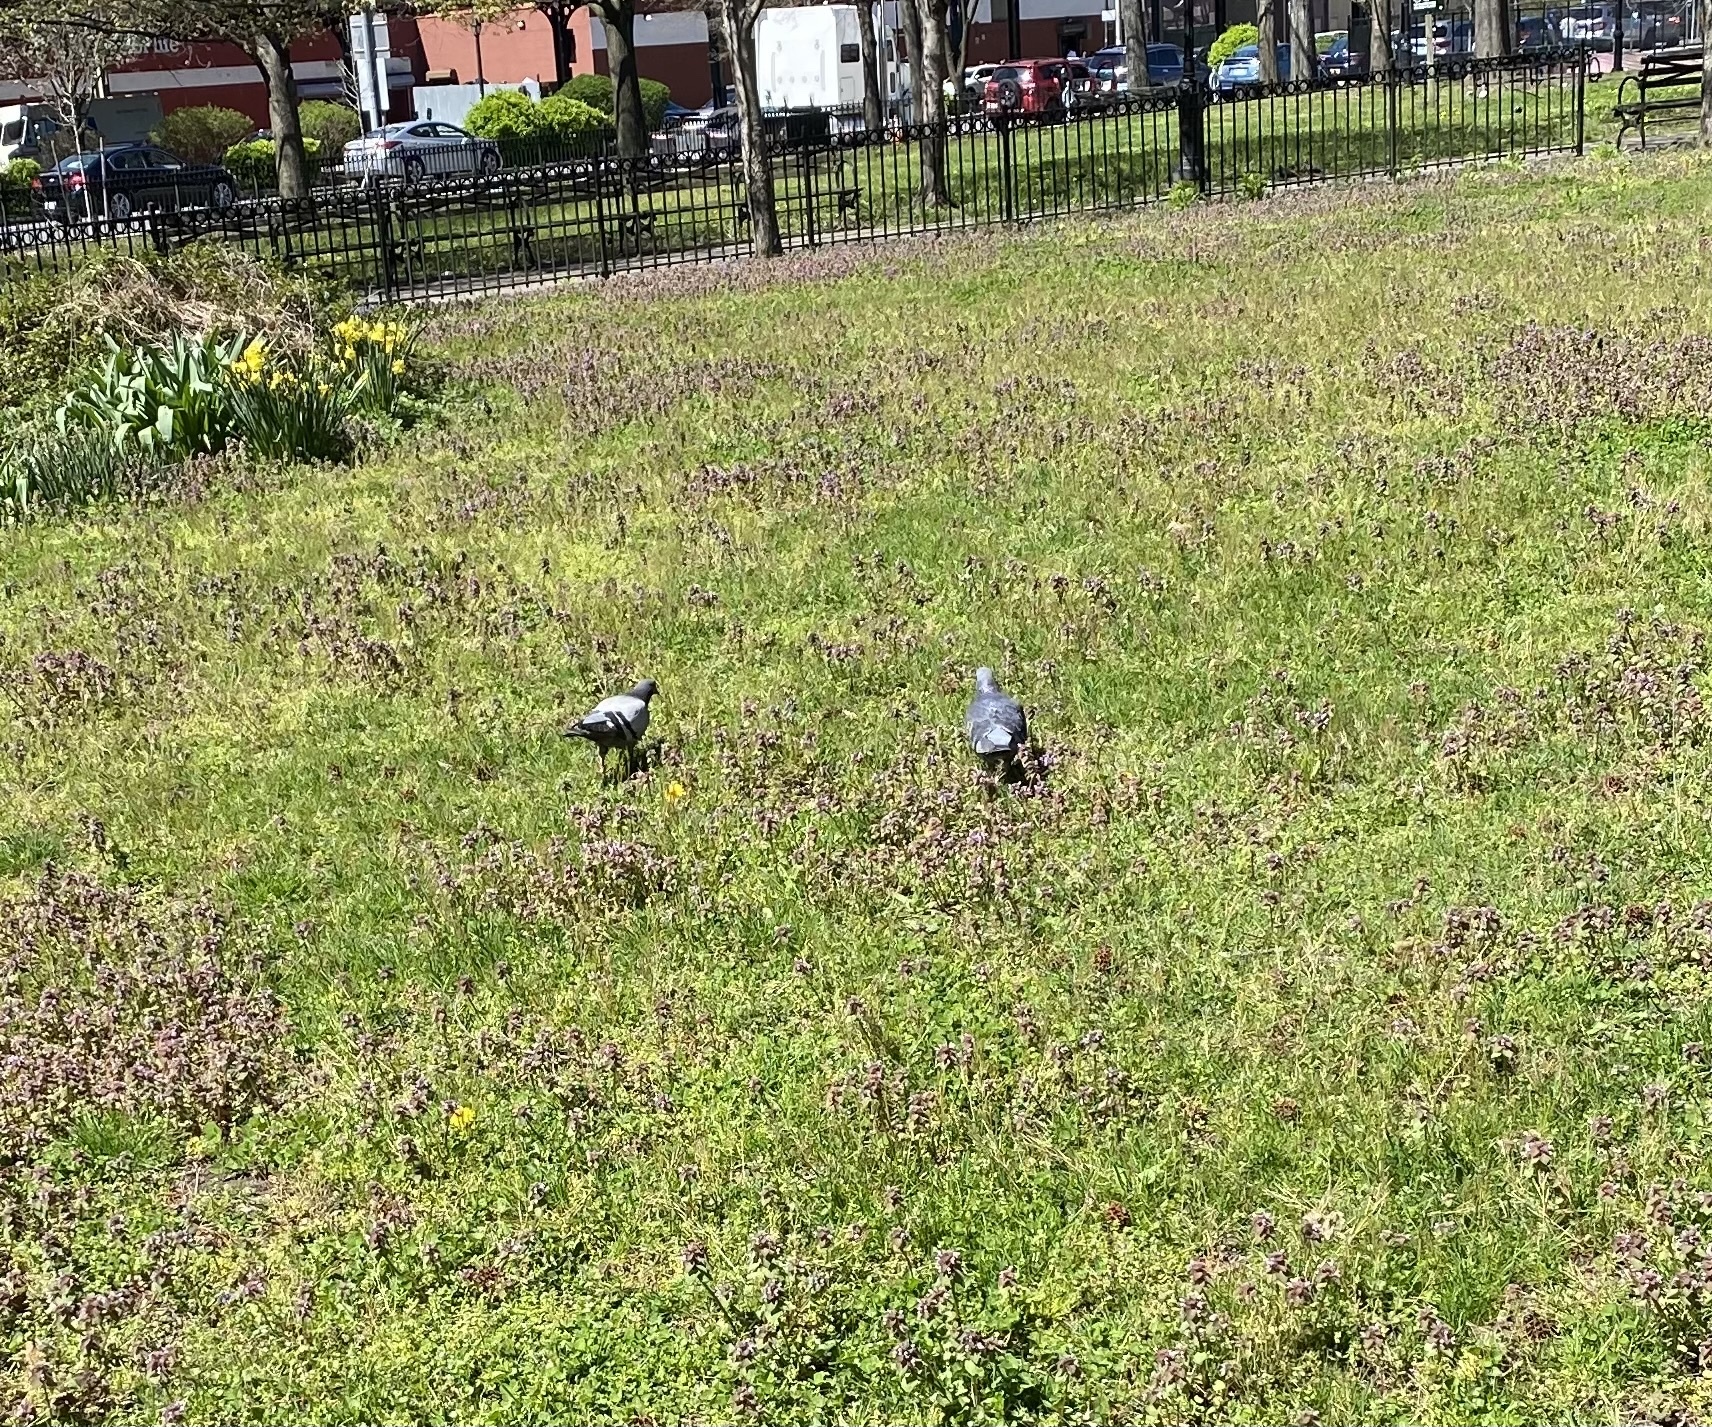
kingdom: Animalia
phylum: Chordata
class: Aves
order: Columbiformes
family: Columbidae
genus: Columba
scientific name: Columba livia
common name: Rock pigeon
